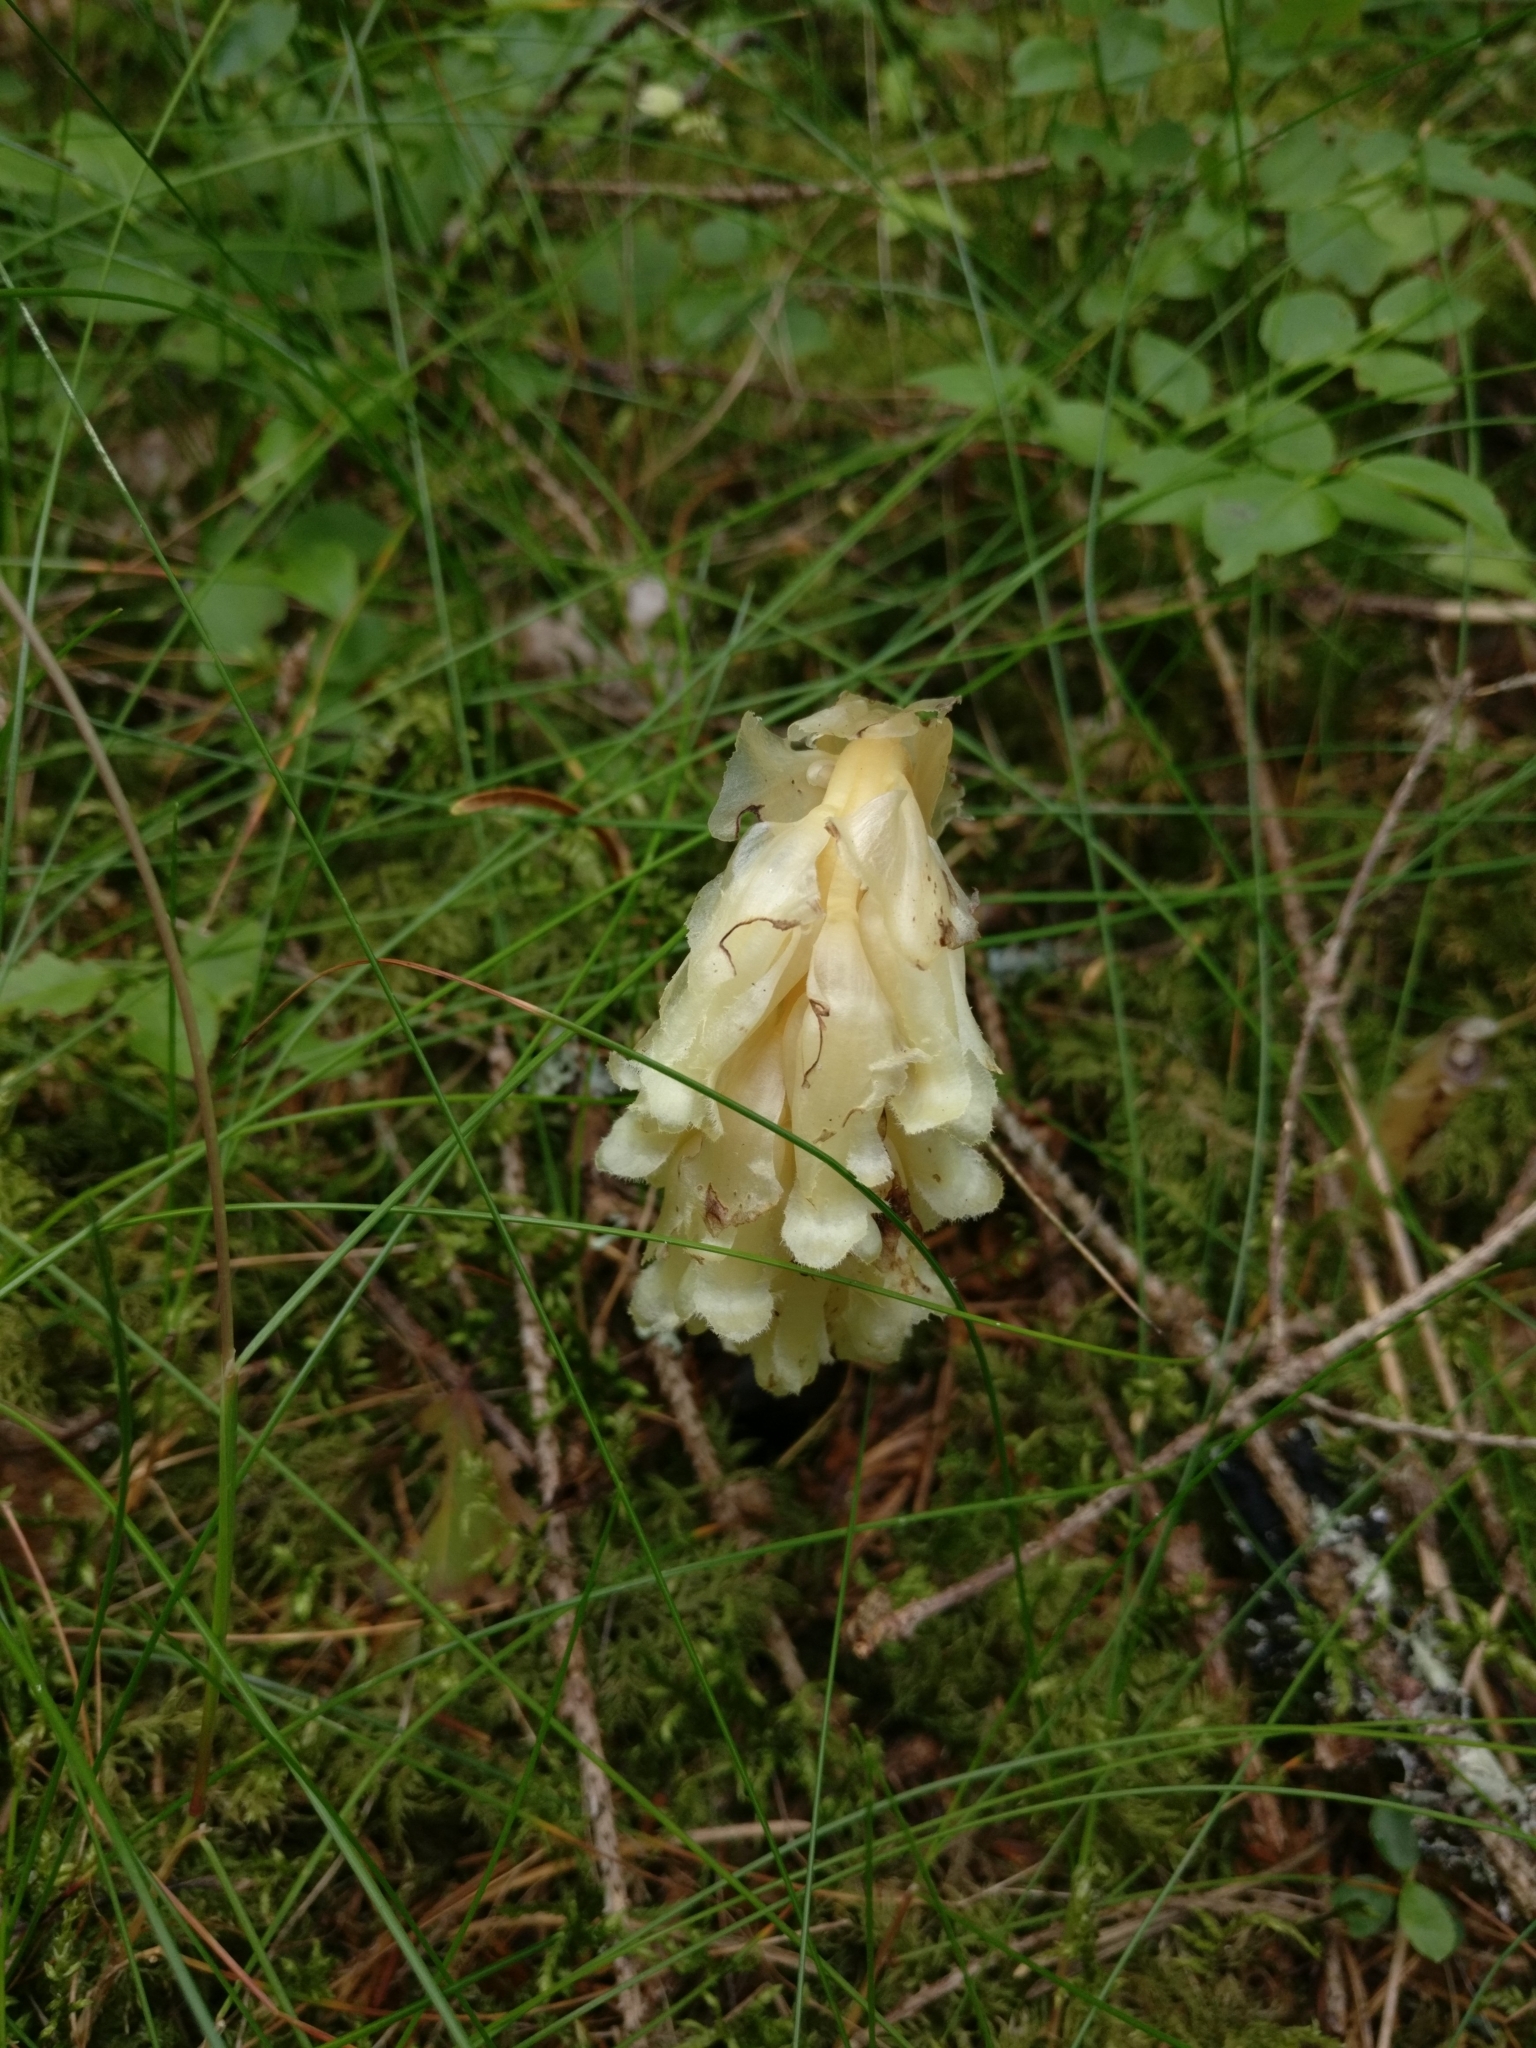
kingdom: Plantae
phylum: Tracheophyta
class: Magnoliopsida
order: Ericales
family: Ericaceae
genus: Hypopitys
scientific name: Hypopitys monotropa
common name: Yellow bird's-nest
